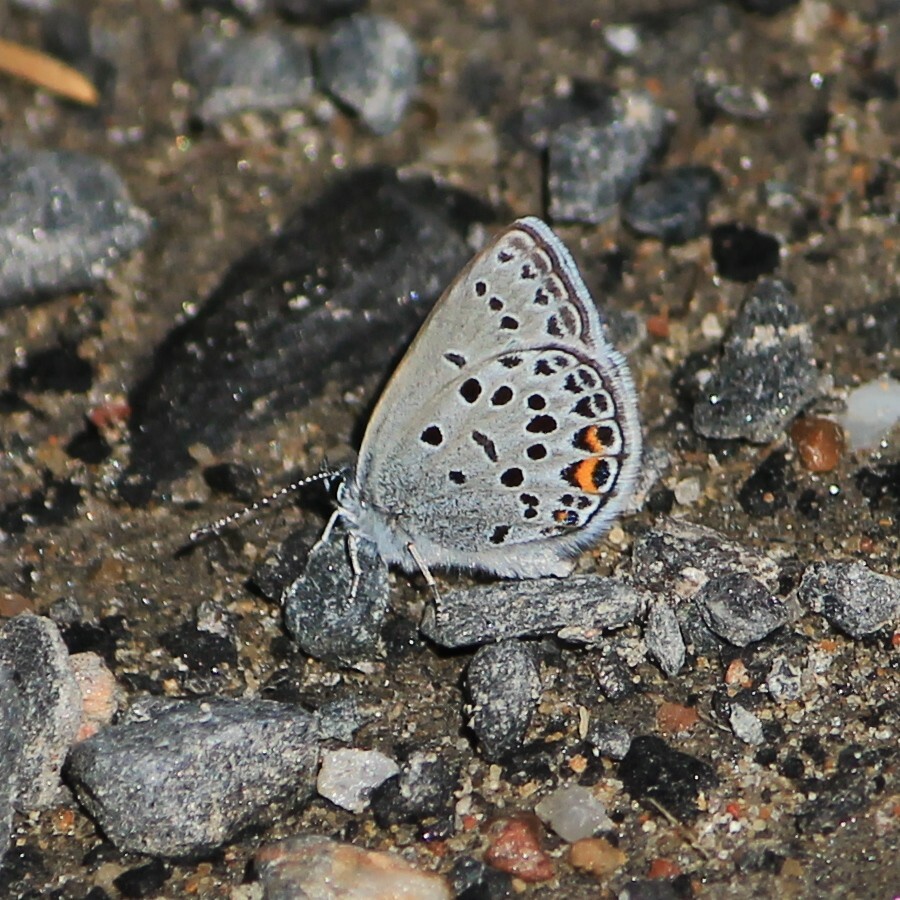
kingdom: Animalia
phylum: Arthropoda
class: Insecta
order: Lepidoptera
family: Lycaenidae
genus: Vacciniina
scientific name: Vacciniina optilete
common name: Cranberry blue
